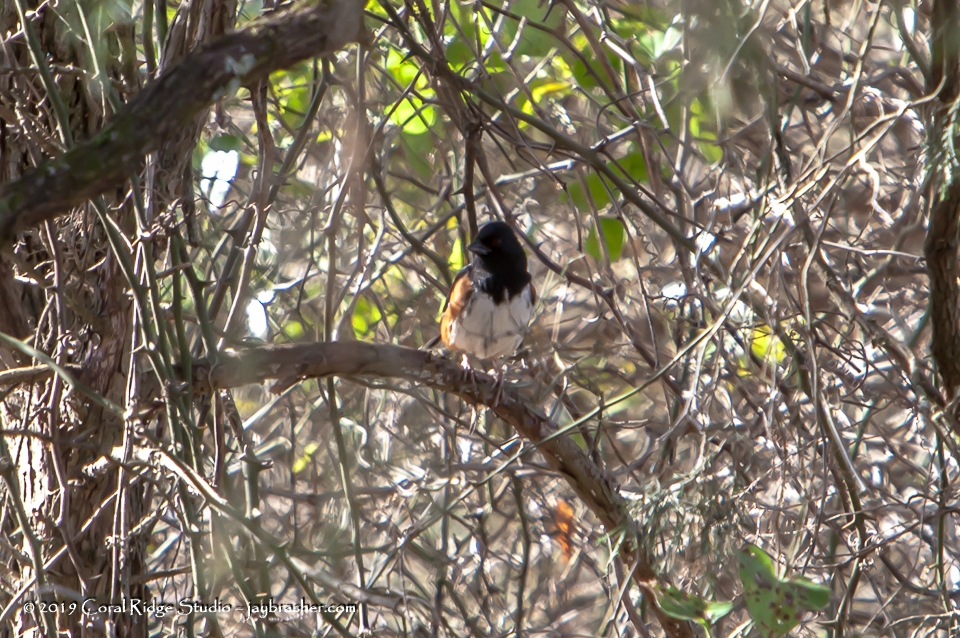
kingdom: Animalia
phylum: Chordata
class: Aves
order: Passeriformes
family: Passerellidae
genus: Pipilo
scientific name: Pipilo erythrophthalmus
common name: Eastern towhee
